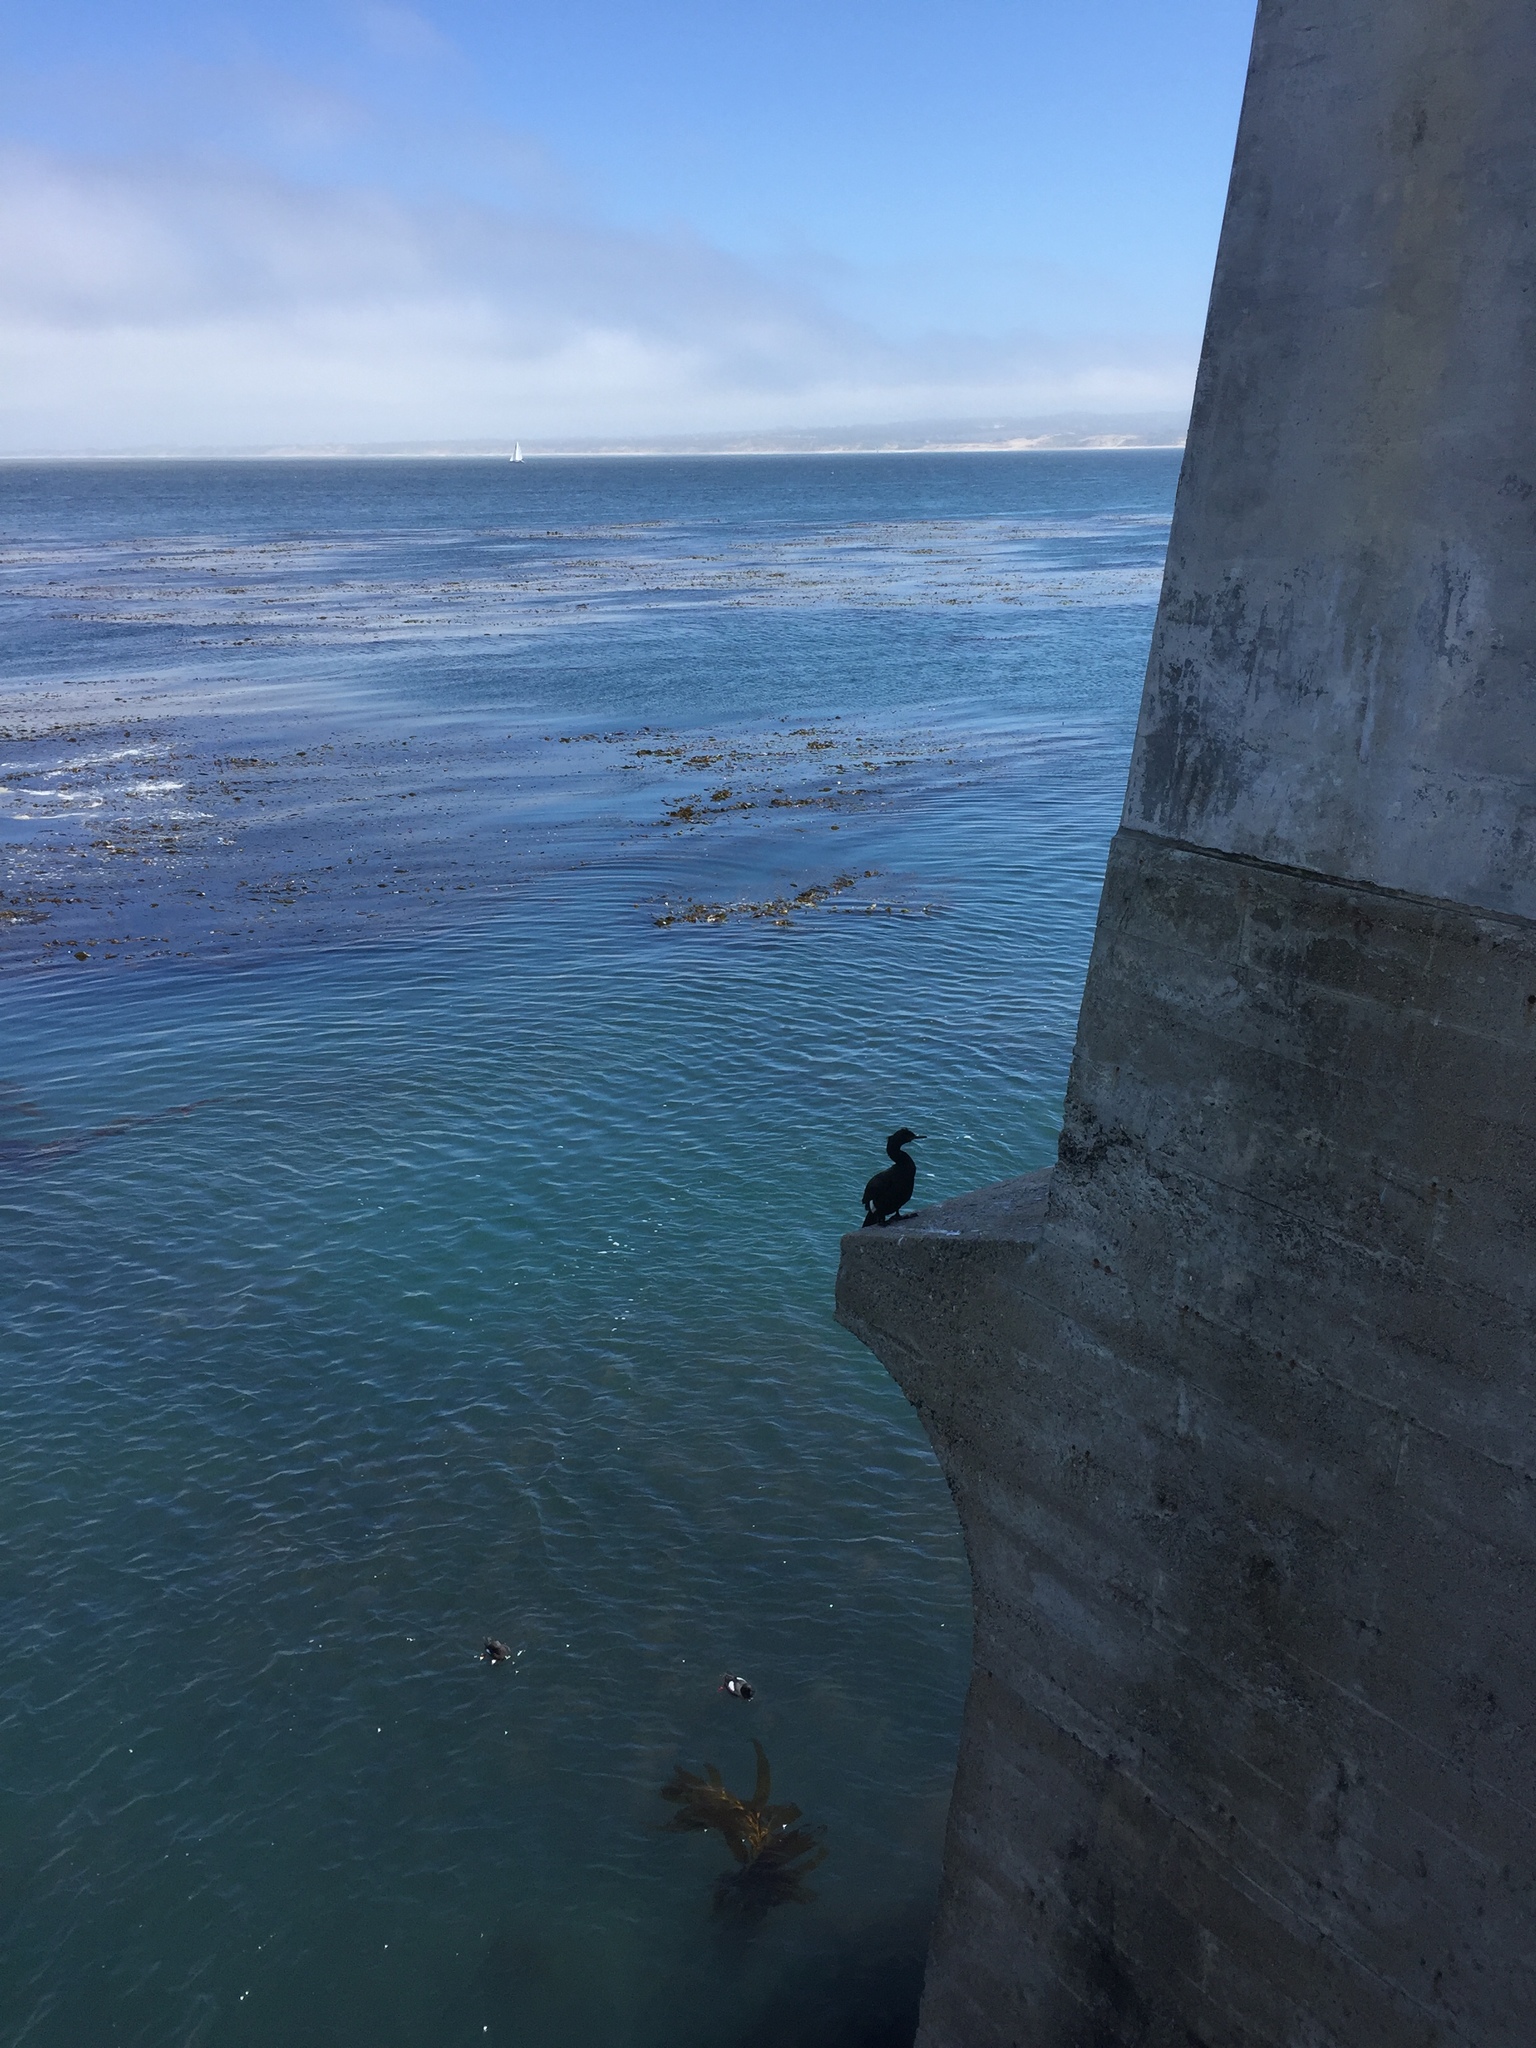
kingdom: Animalia
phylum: Chordata
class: Aves
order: Charadriiformes
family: Alcidae
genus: Cepphus
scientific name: Cepphus columba
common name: Pigeon guillemot
